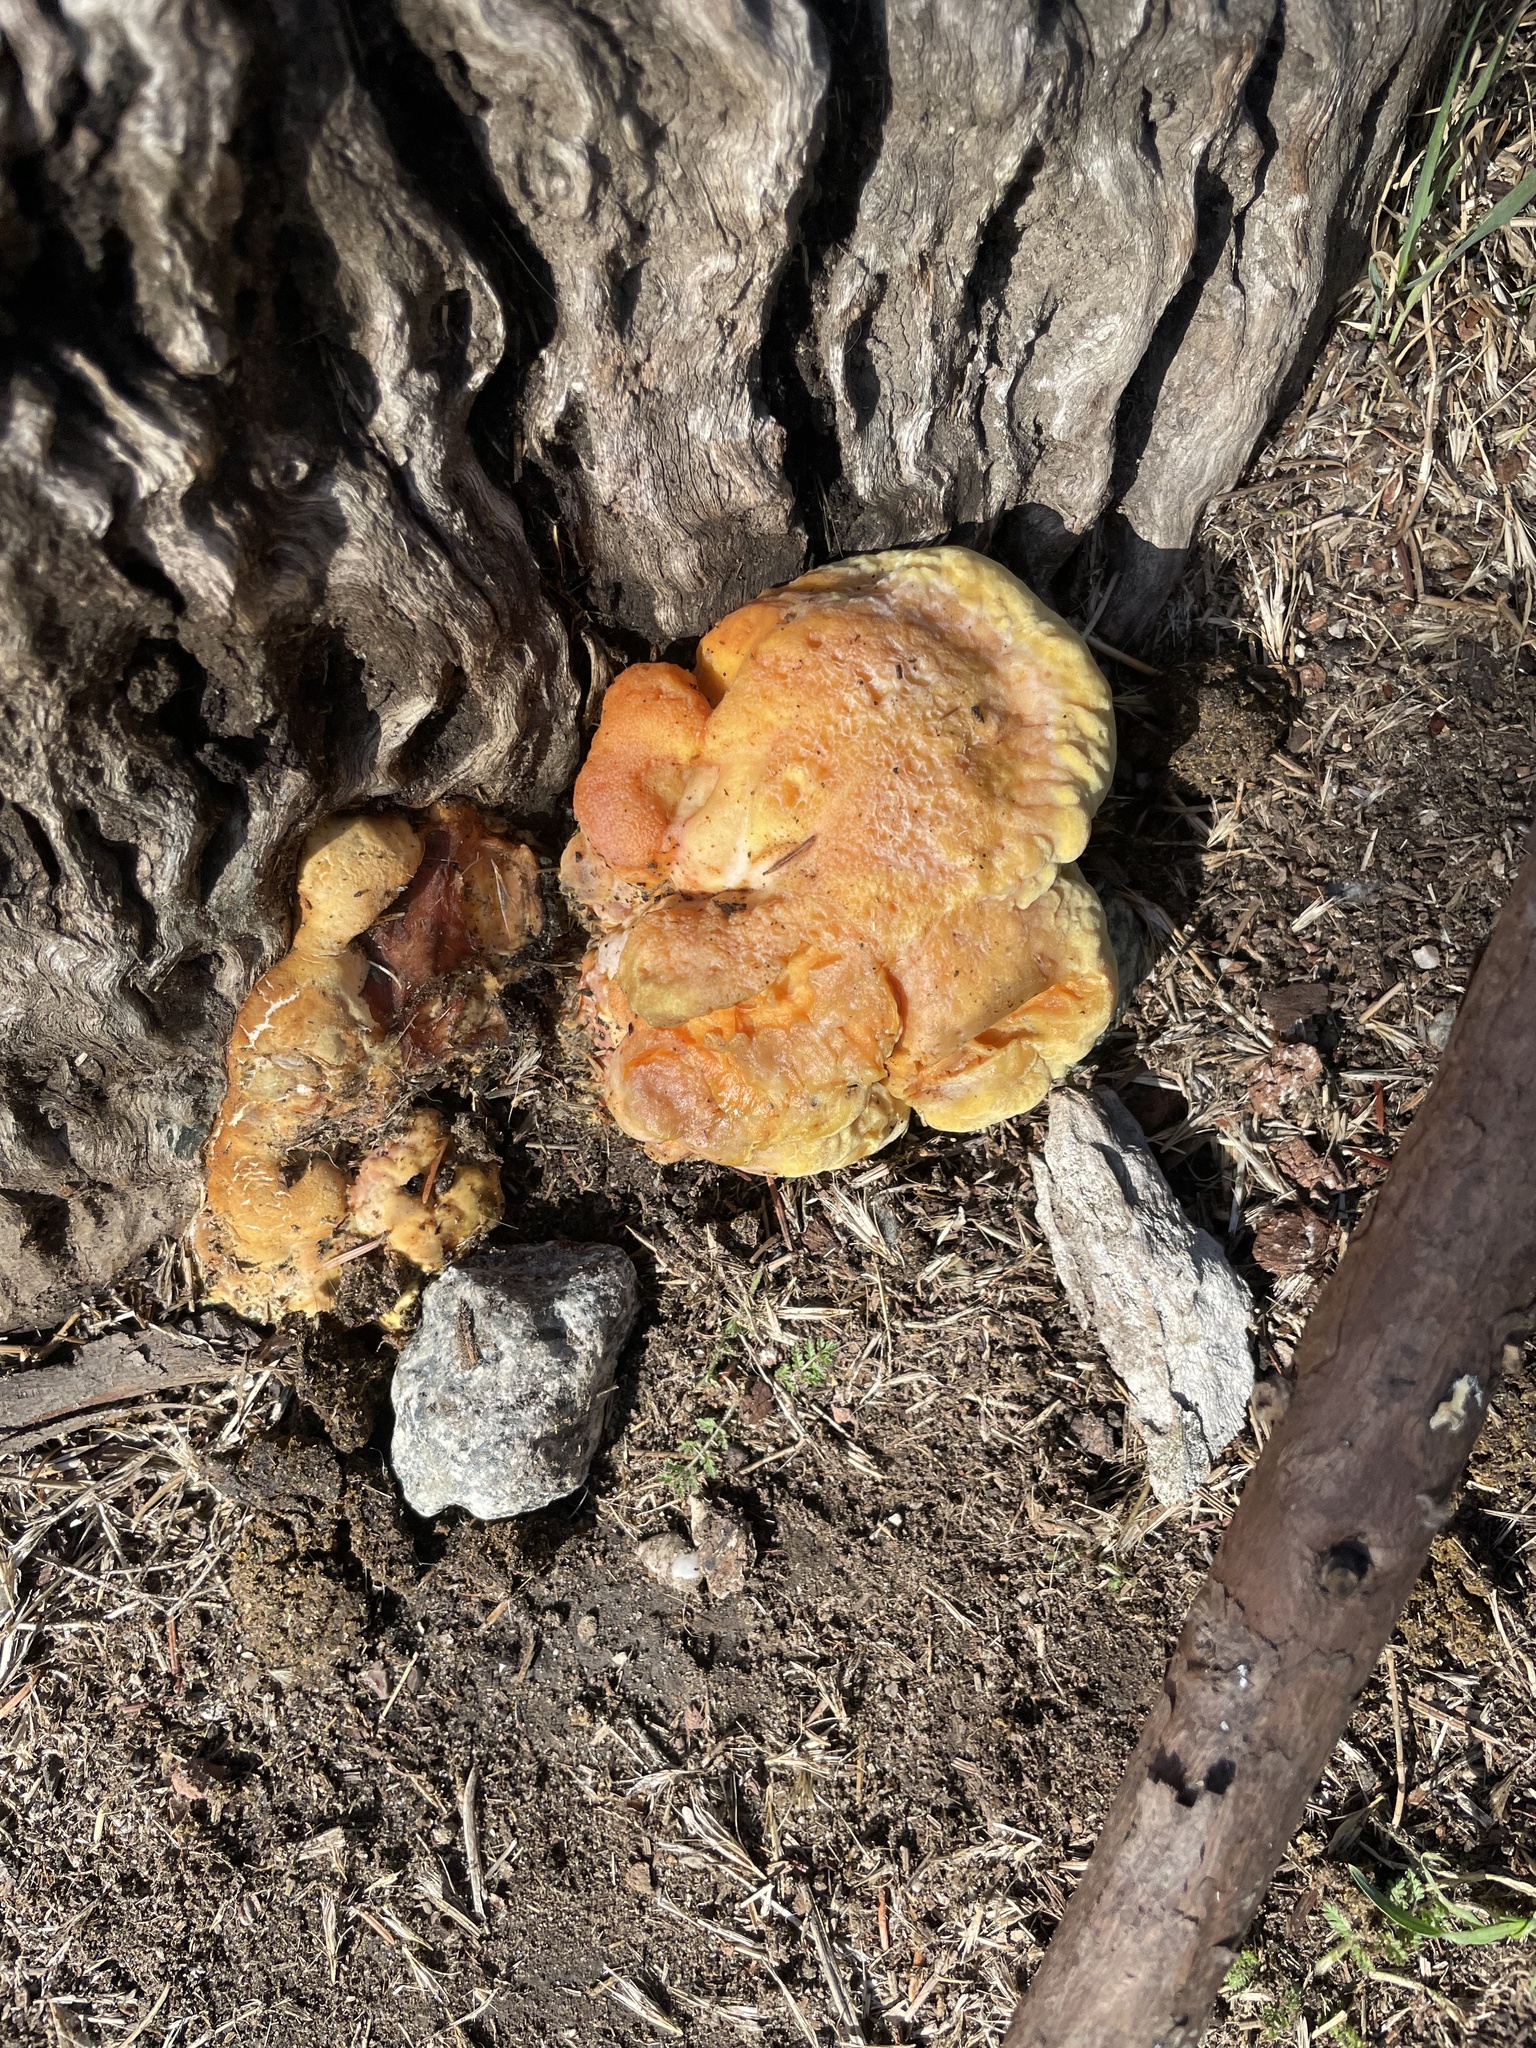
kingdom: Fungi
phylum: Basidiomycota
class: Agaricomycetes
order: Polyporales
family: Laetiporaceae
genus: Laetiporus
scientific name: Laetiporus gilbertsonii
